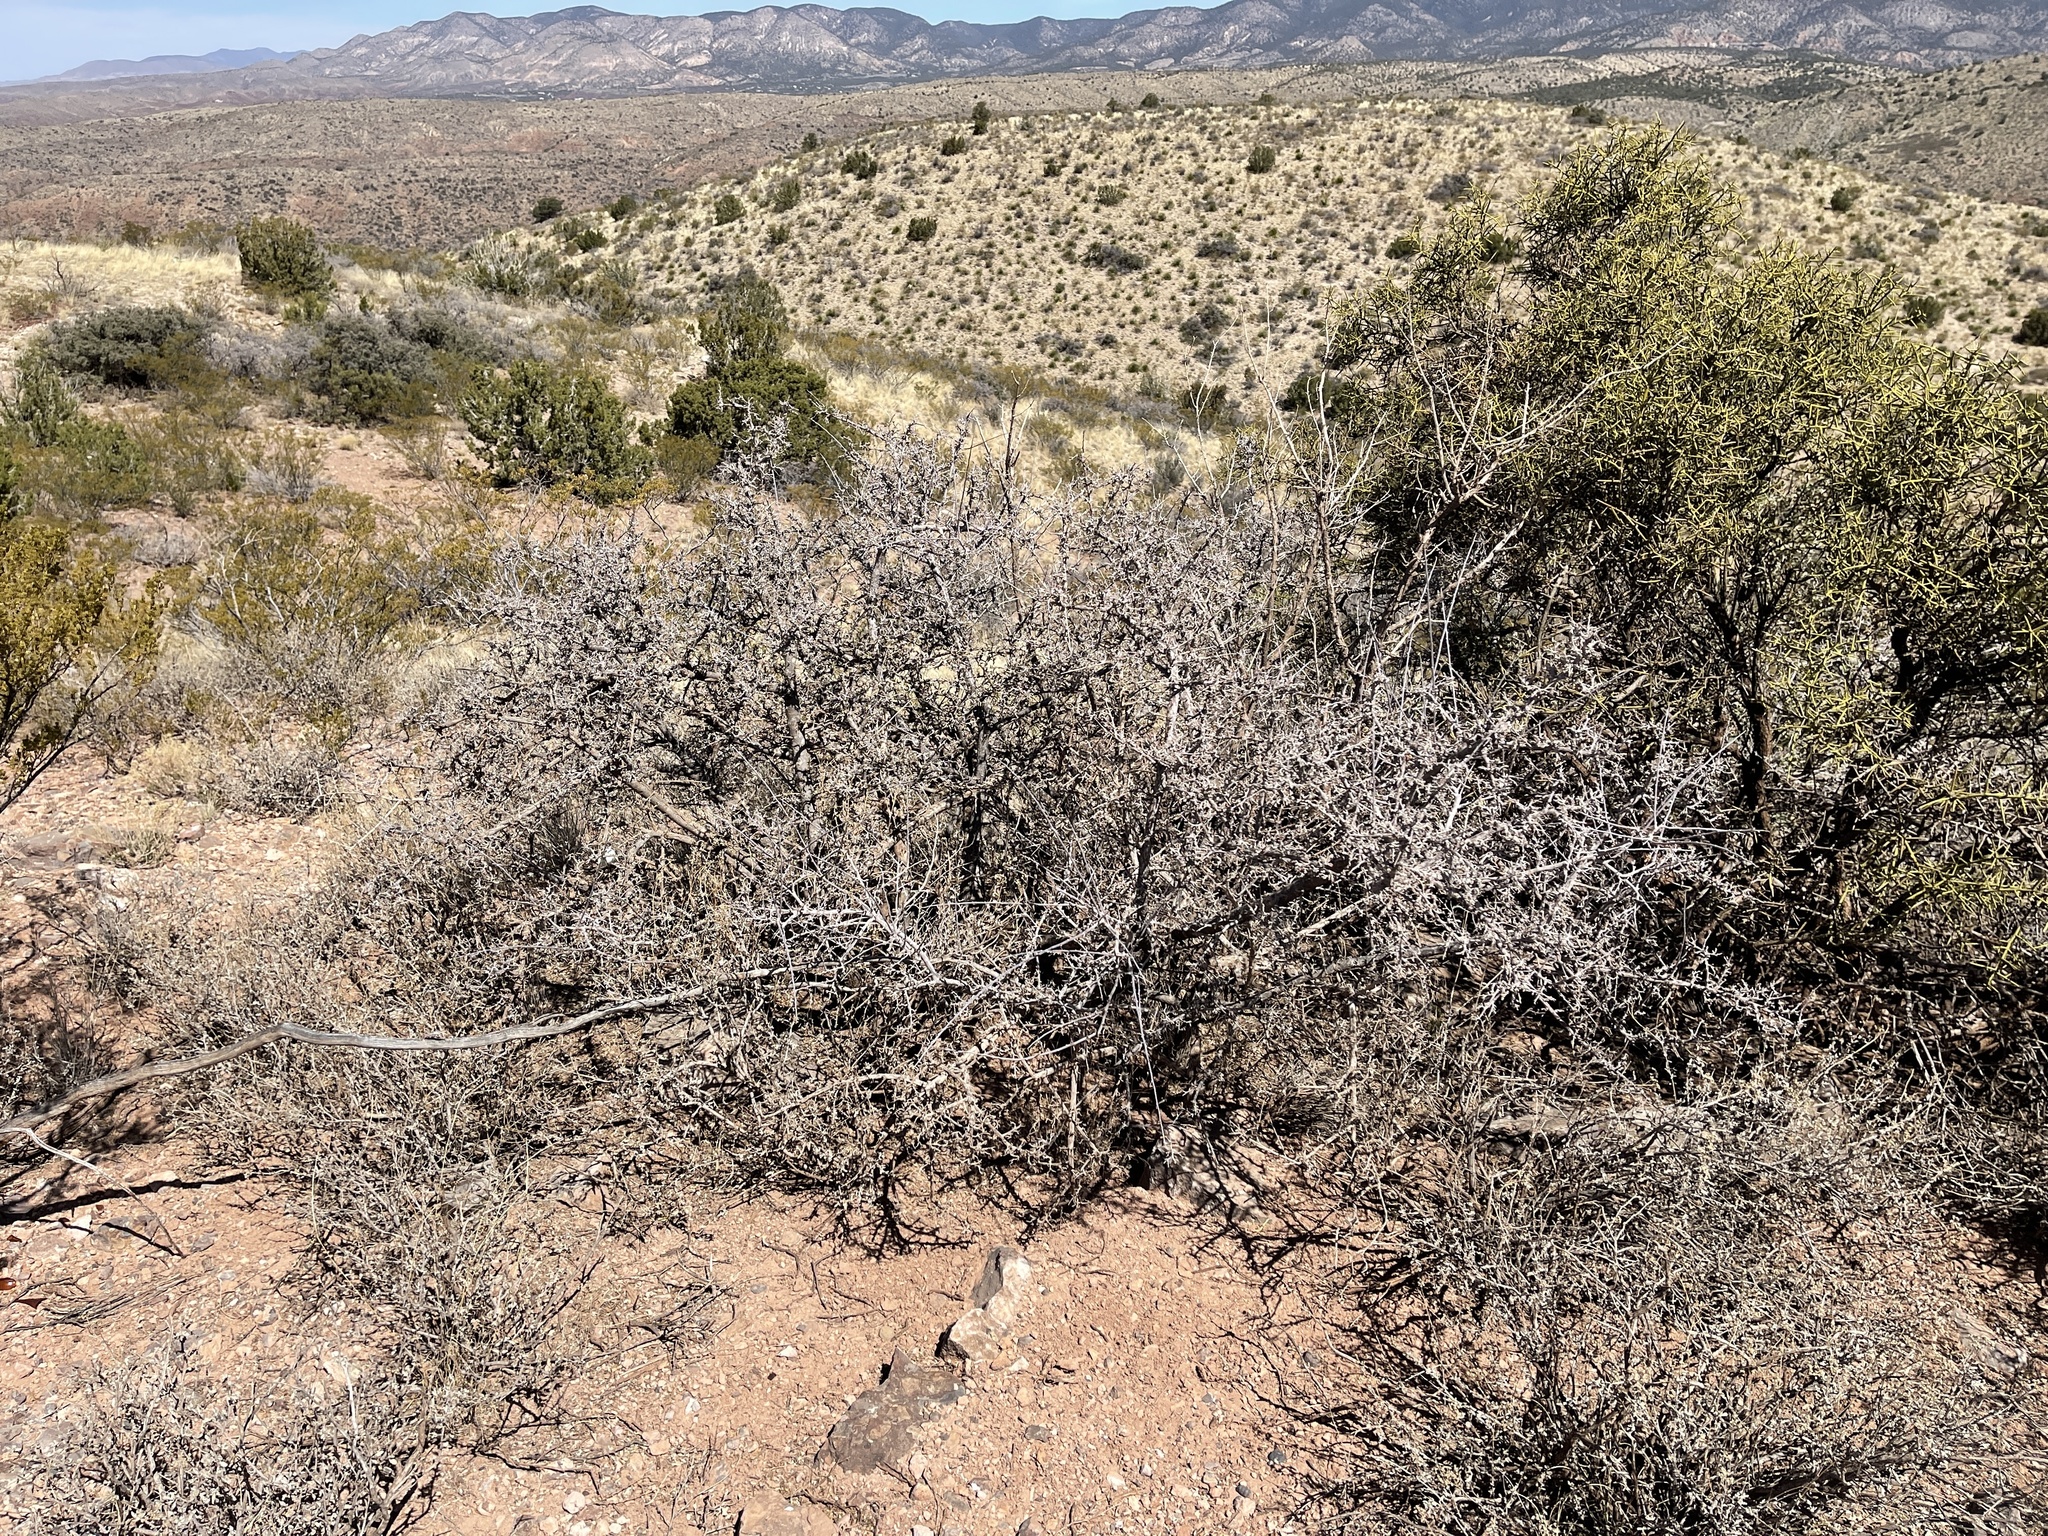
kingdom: Plantae
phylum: Tracheophyta
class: Magnoliopsida
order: Sapindales
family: Anacardiaceae
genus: Rhus
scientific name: Rhus microphylla
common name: Desert sumac
